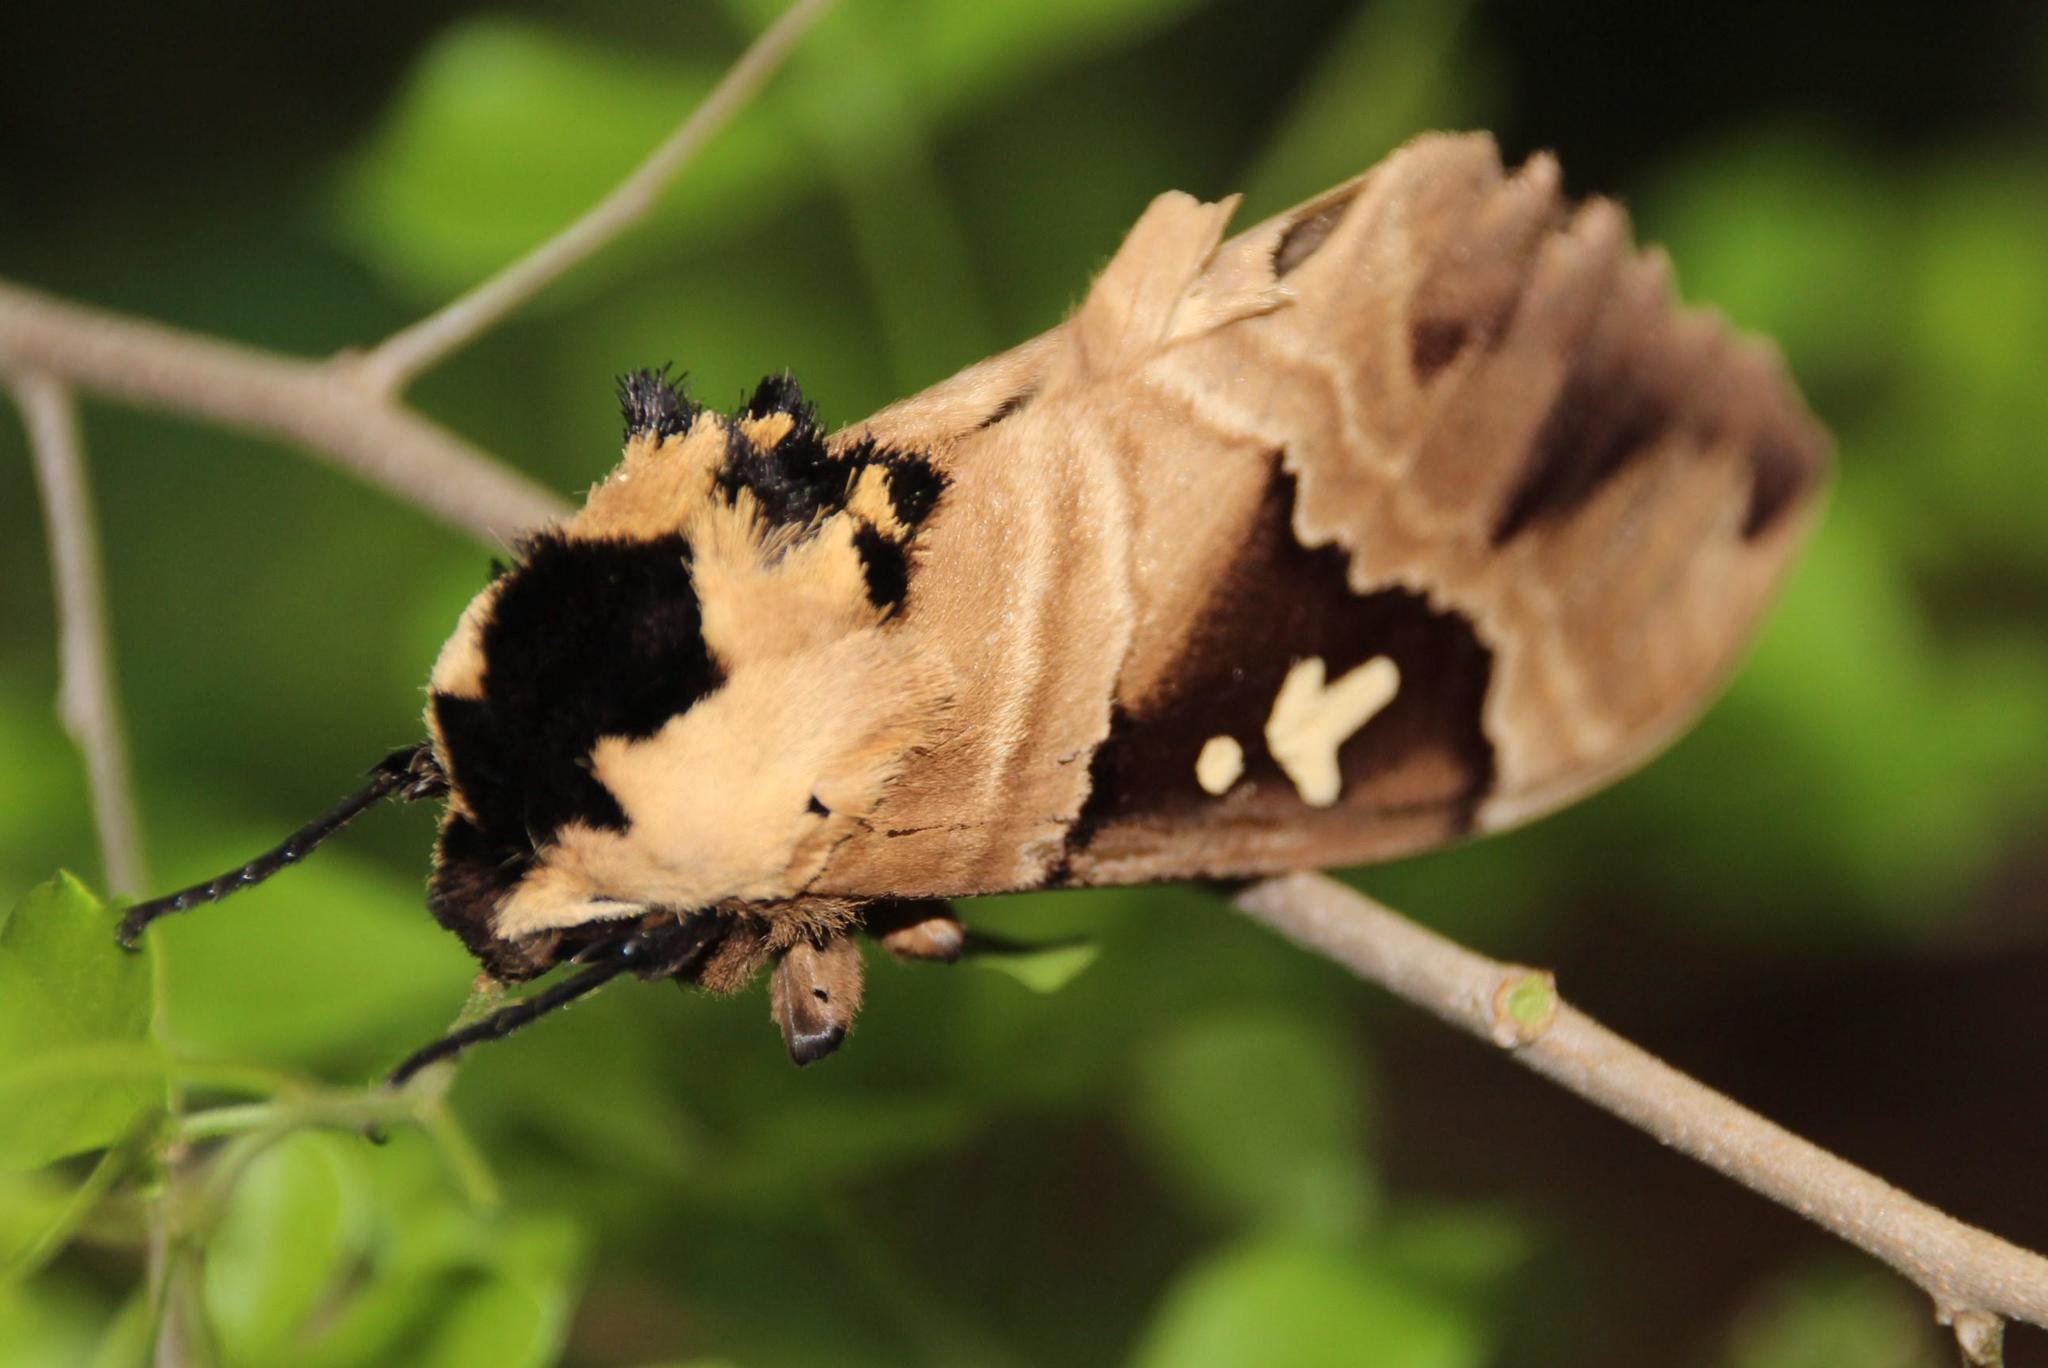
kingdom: Animalia
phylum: Arthropoda
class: Insecta
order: Lepidoptera
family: Sphingidae
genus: Lophostethus
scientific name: Lophostethus dumolinii
